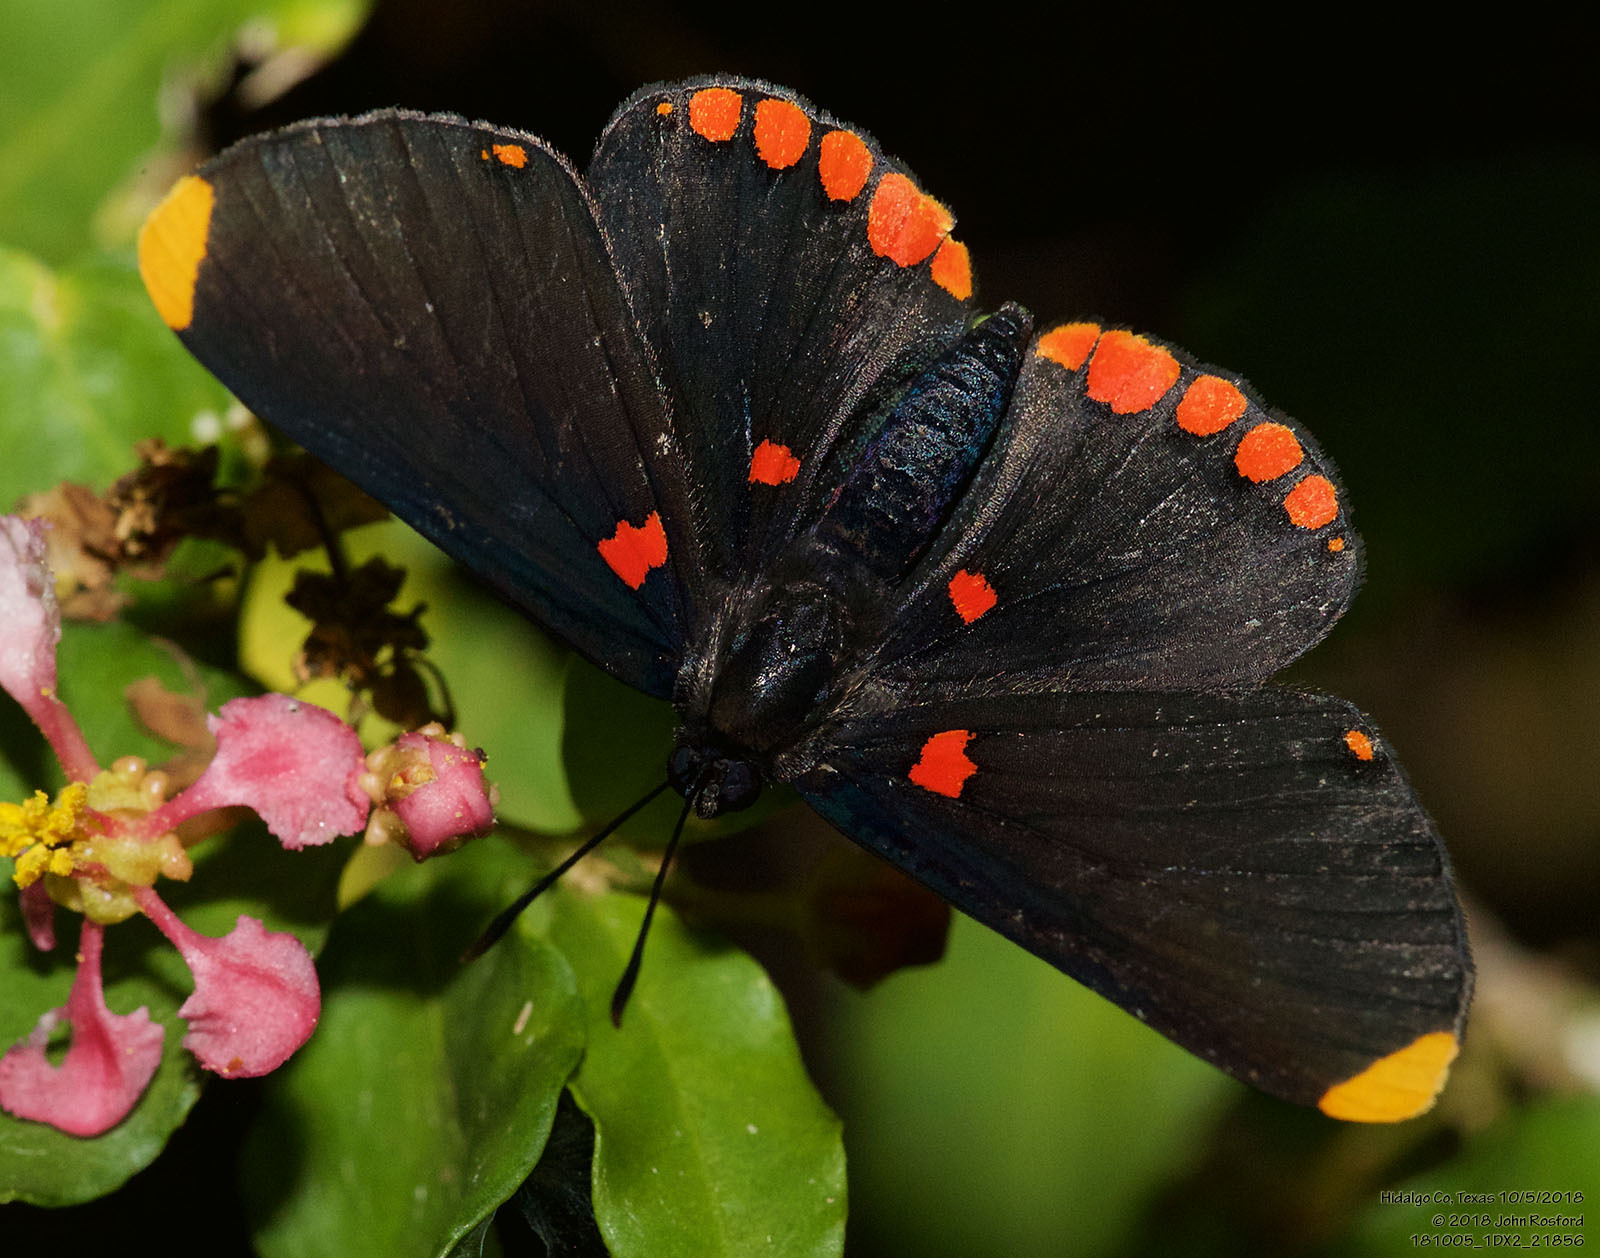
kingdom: Animalia
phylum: Arthropoda
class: Insecta
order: Lepidoptera
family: Lycaenidae
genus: Melanis
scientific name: Melanis pixe
